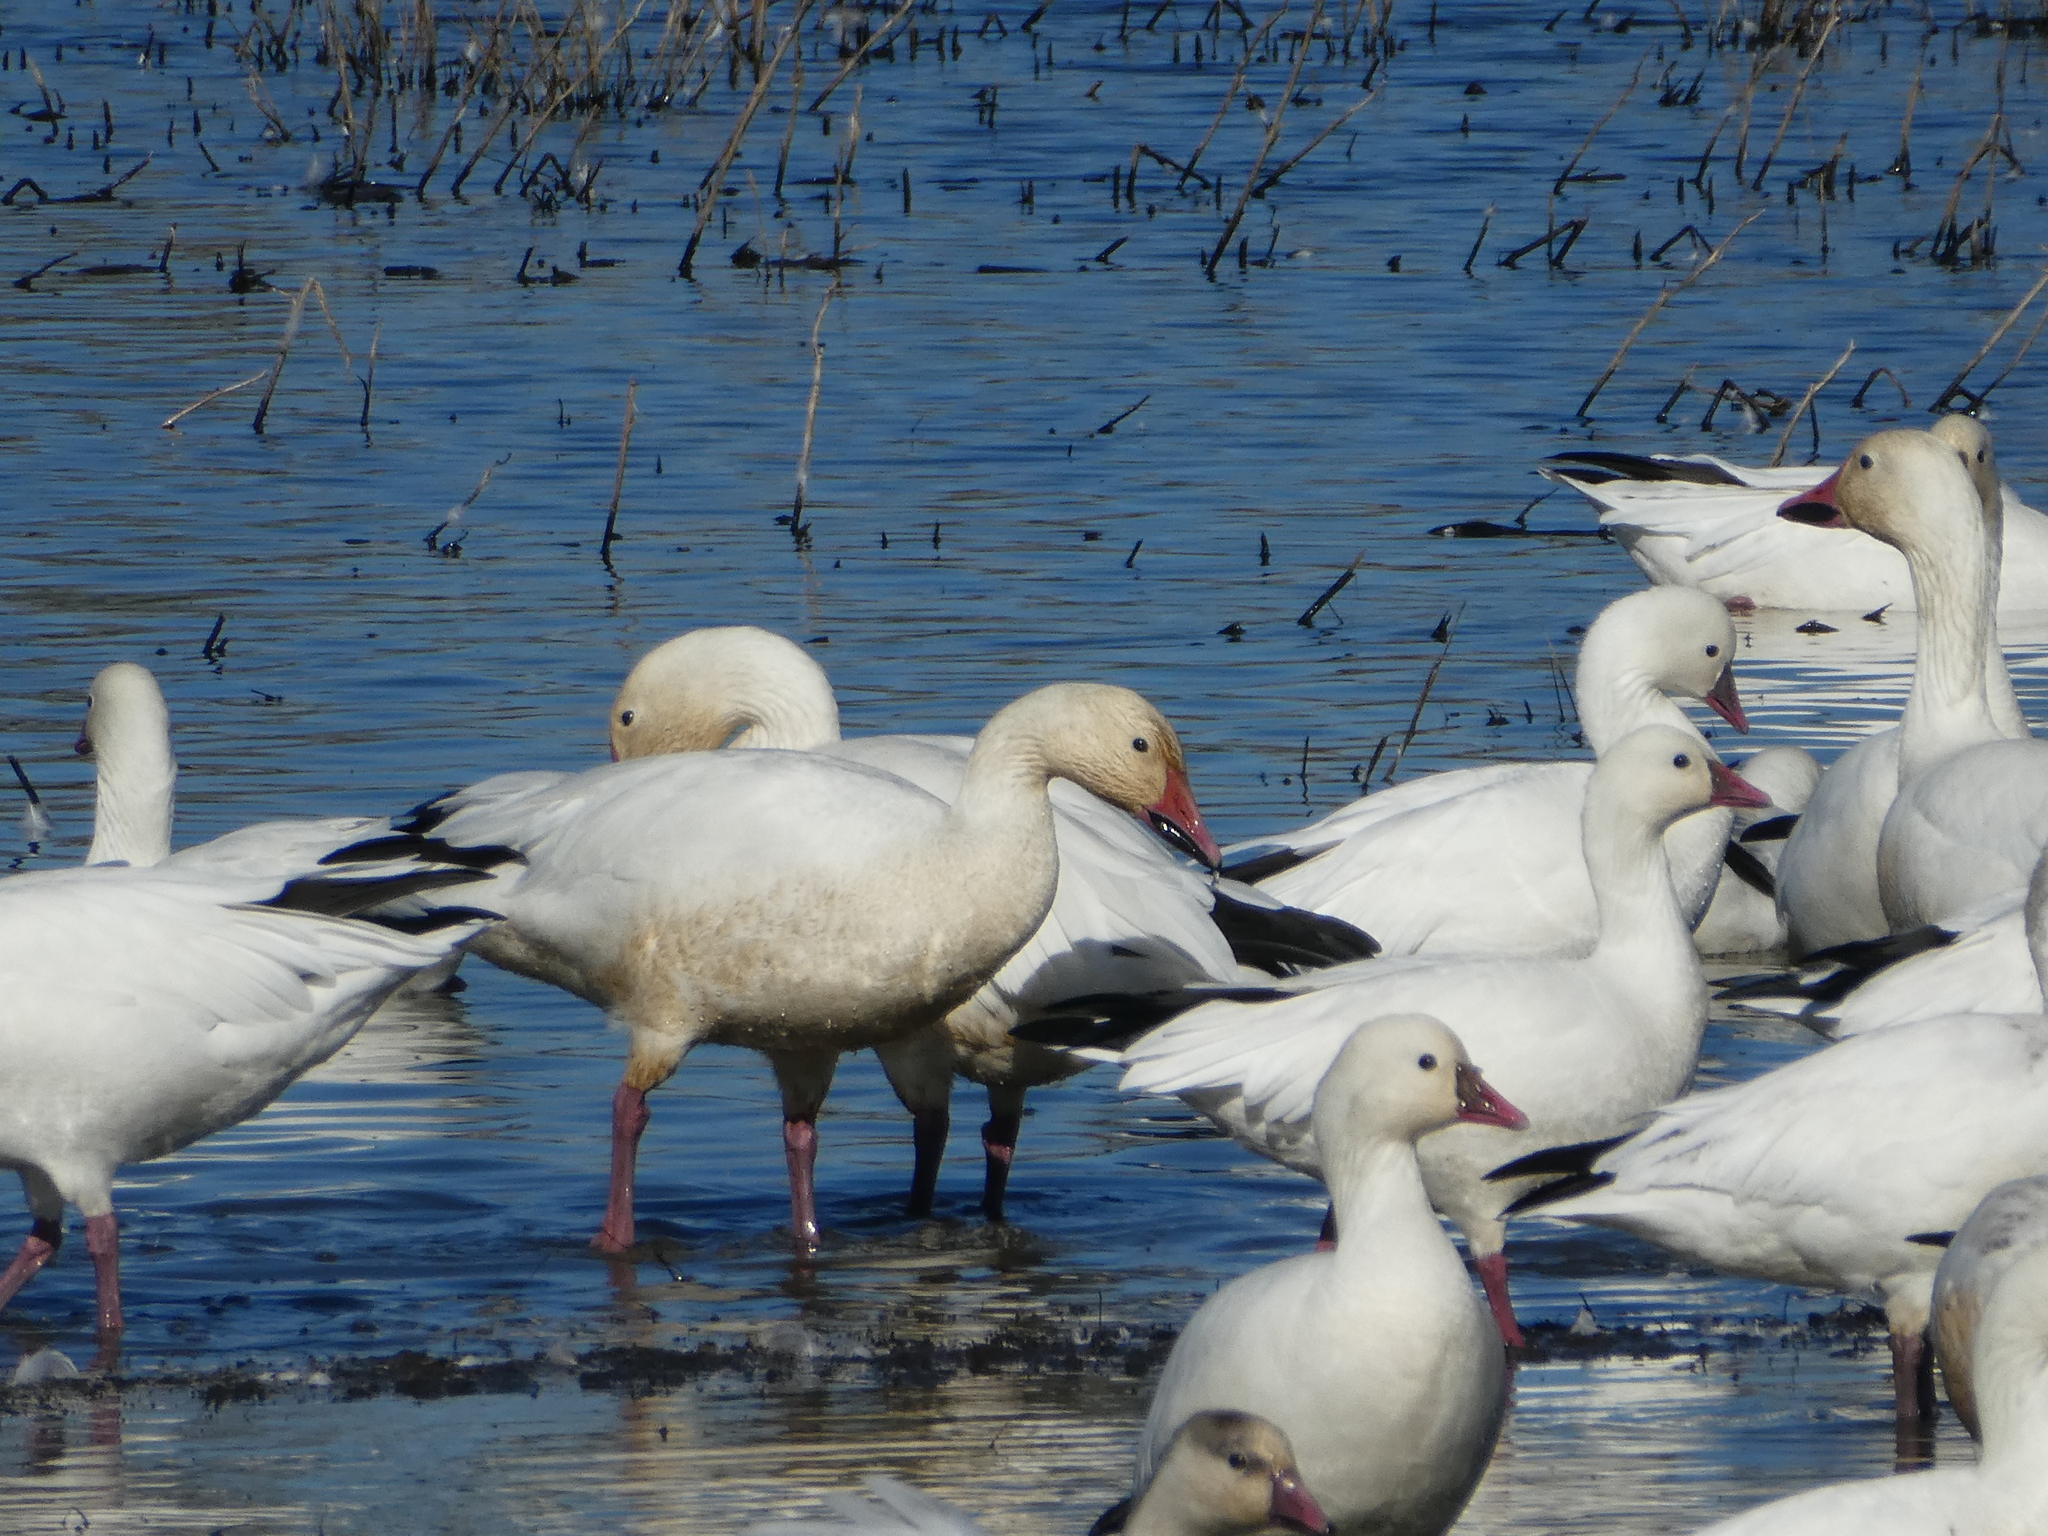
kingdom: Animalia
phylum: Chordata
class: Aves
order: Anseriformes
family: Anatidae
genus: Anser
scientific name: Anser caerulescens
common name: Snow goose
